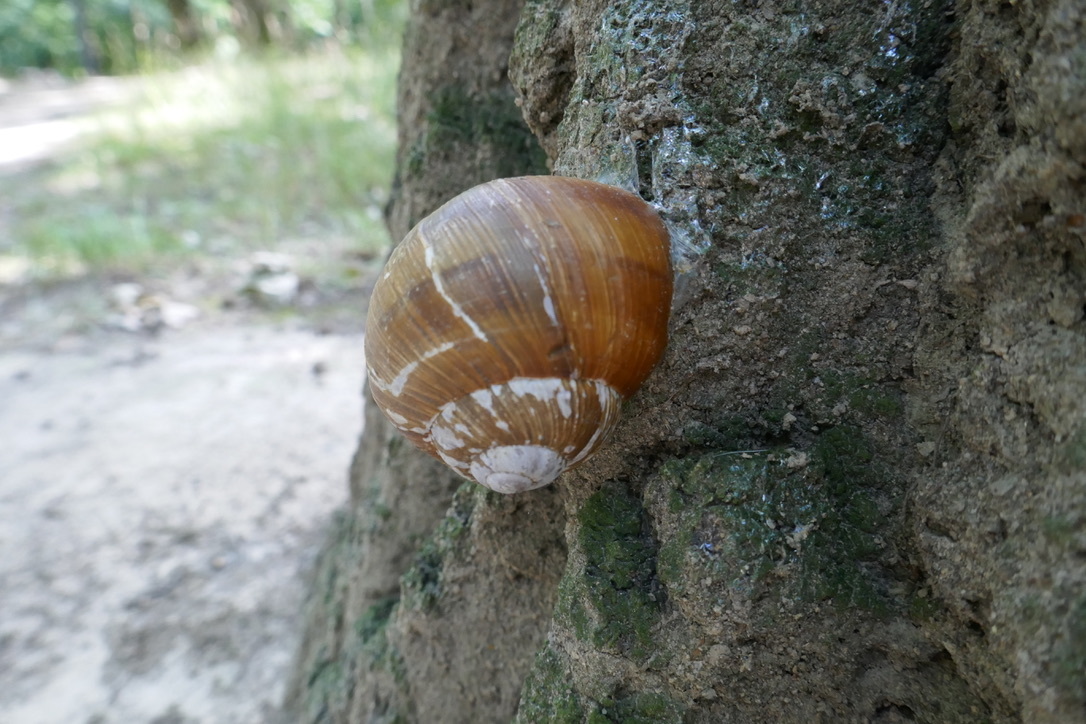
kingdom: Animalia
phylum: Mollusca
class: Gastropoda
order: Stylommatophora
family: Helicidae
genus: Helix
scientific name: Helix pomatia
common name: Roman snail
